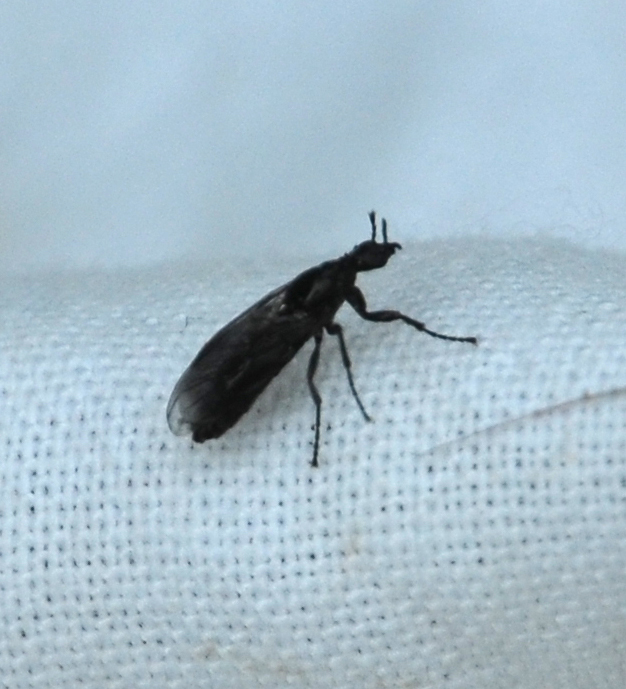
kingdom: Animalia
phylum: Arthropoda
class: Insecta
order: Diptera
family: Bibionidae
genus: Dilophus
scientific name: Dilophus febrilis
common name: Fever fly
